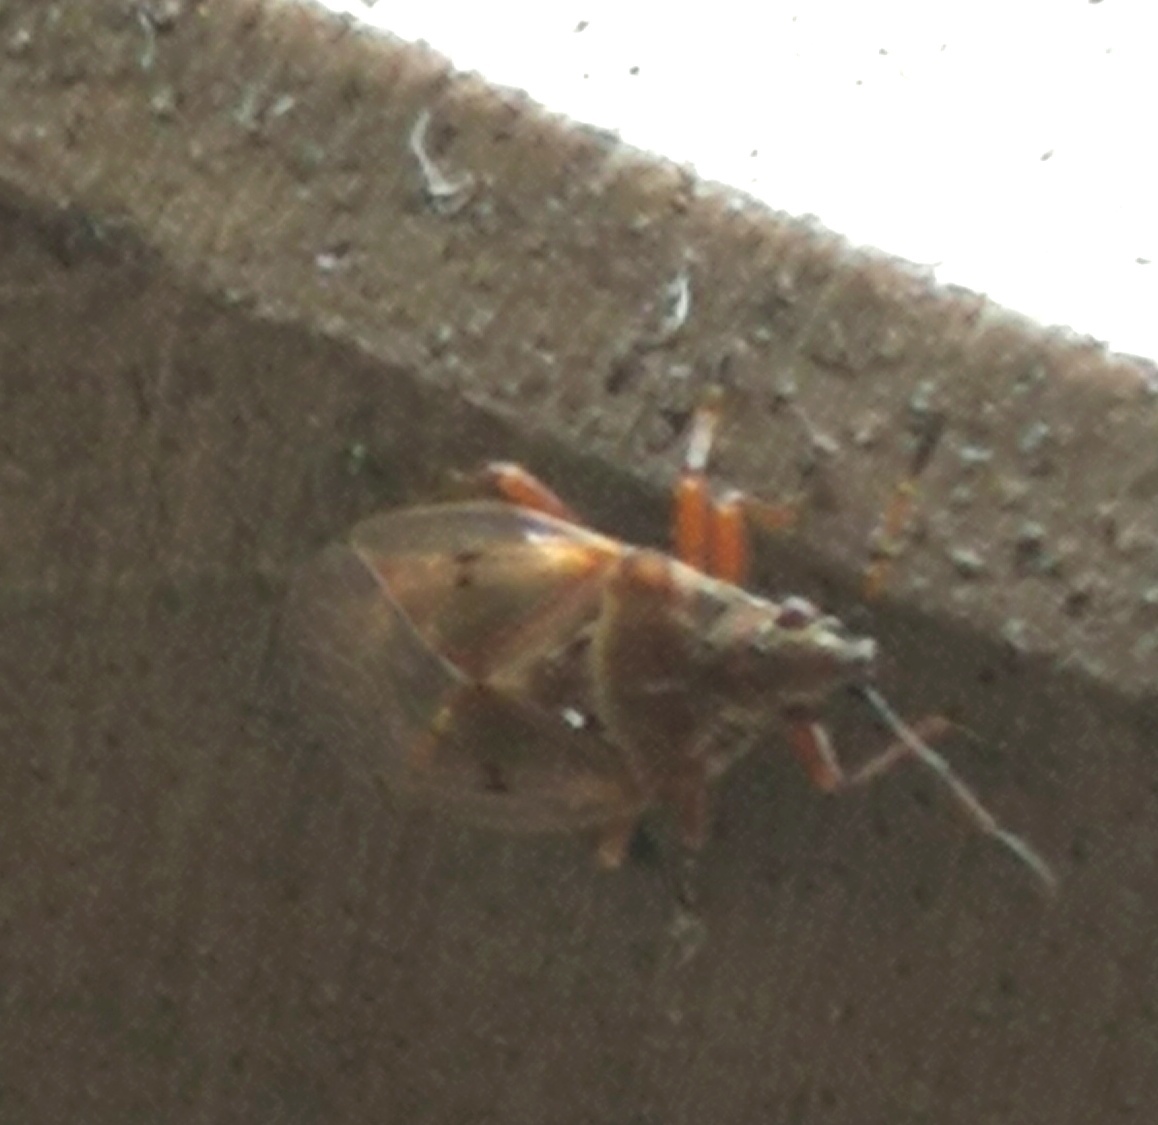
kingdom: Animalia
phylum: Arthropoda
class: Insecta
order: Hemiptera
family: Lygaeidae
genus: Kleidocerys
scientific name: Kleidocerys resedae
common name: Birch catkin bug
